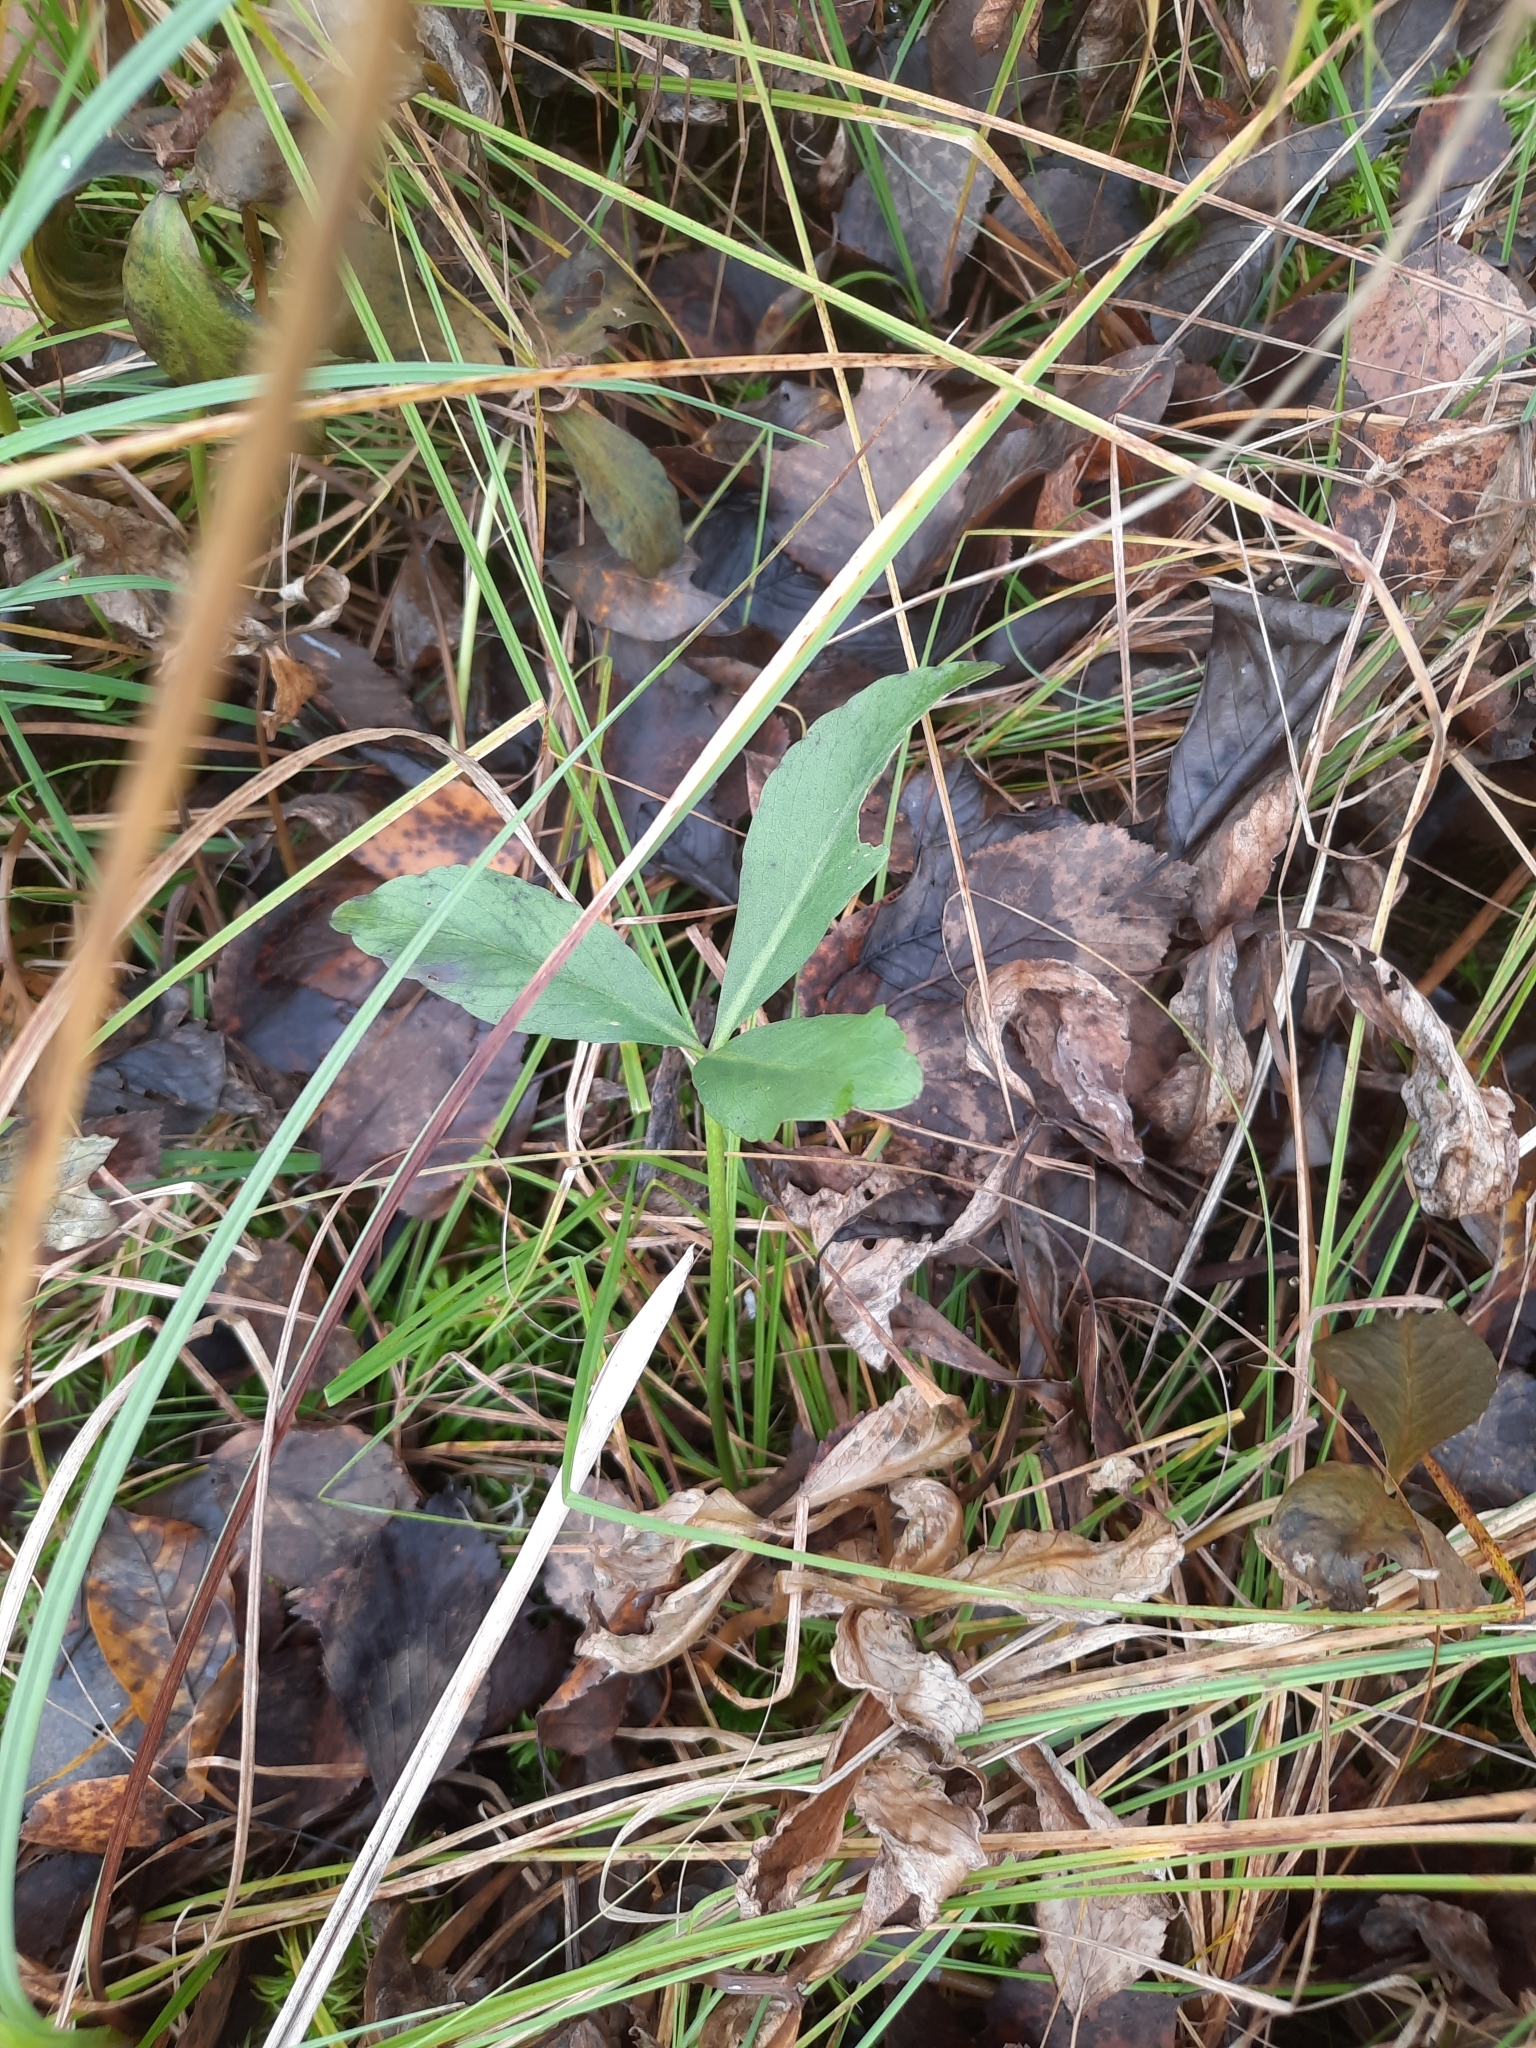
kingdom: Plantae
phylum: Tracheophyta
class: Magnoliopsida
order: Asterales
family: Menyanthaceae
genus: Menyanthes
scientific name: Menyanthes trifoliata
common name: Bogbean
